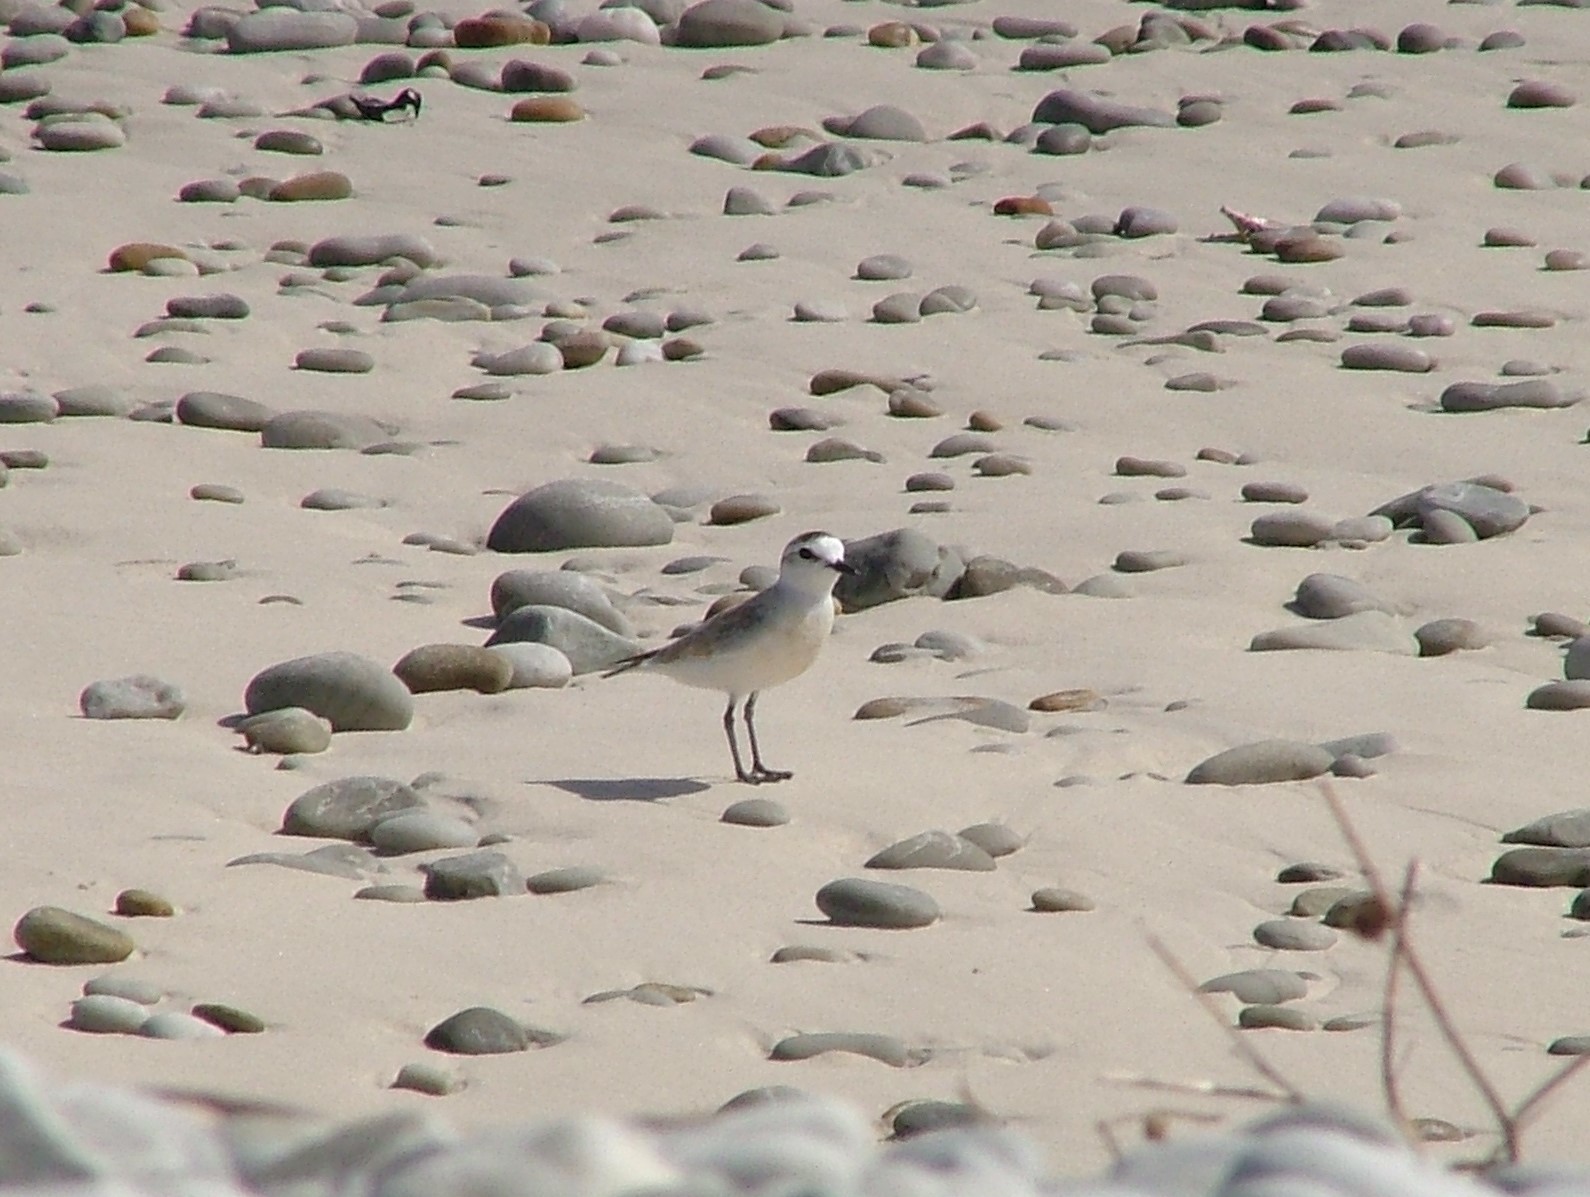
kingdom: Animalia
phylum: Chordata
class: Aves
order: Charadriiformes
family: Charadriidae
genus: Anarhynchus
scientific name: Anarhynchus
